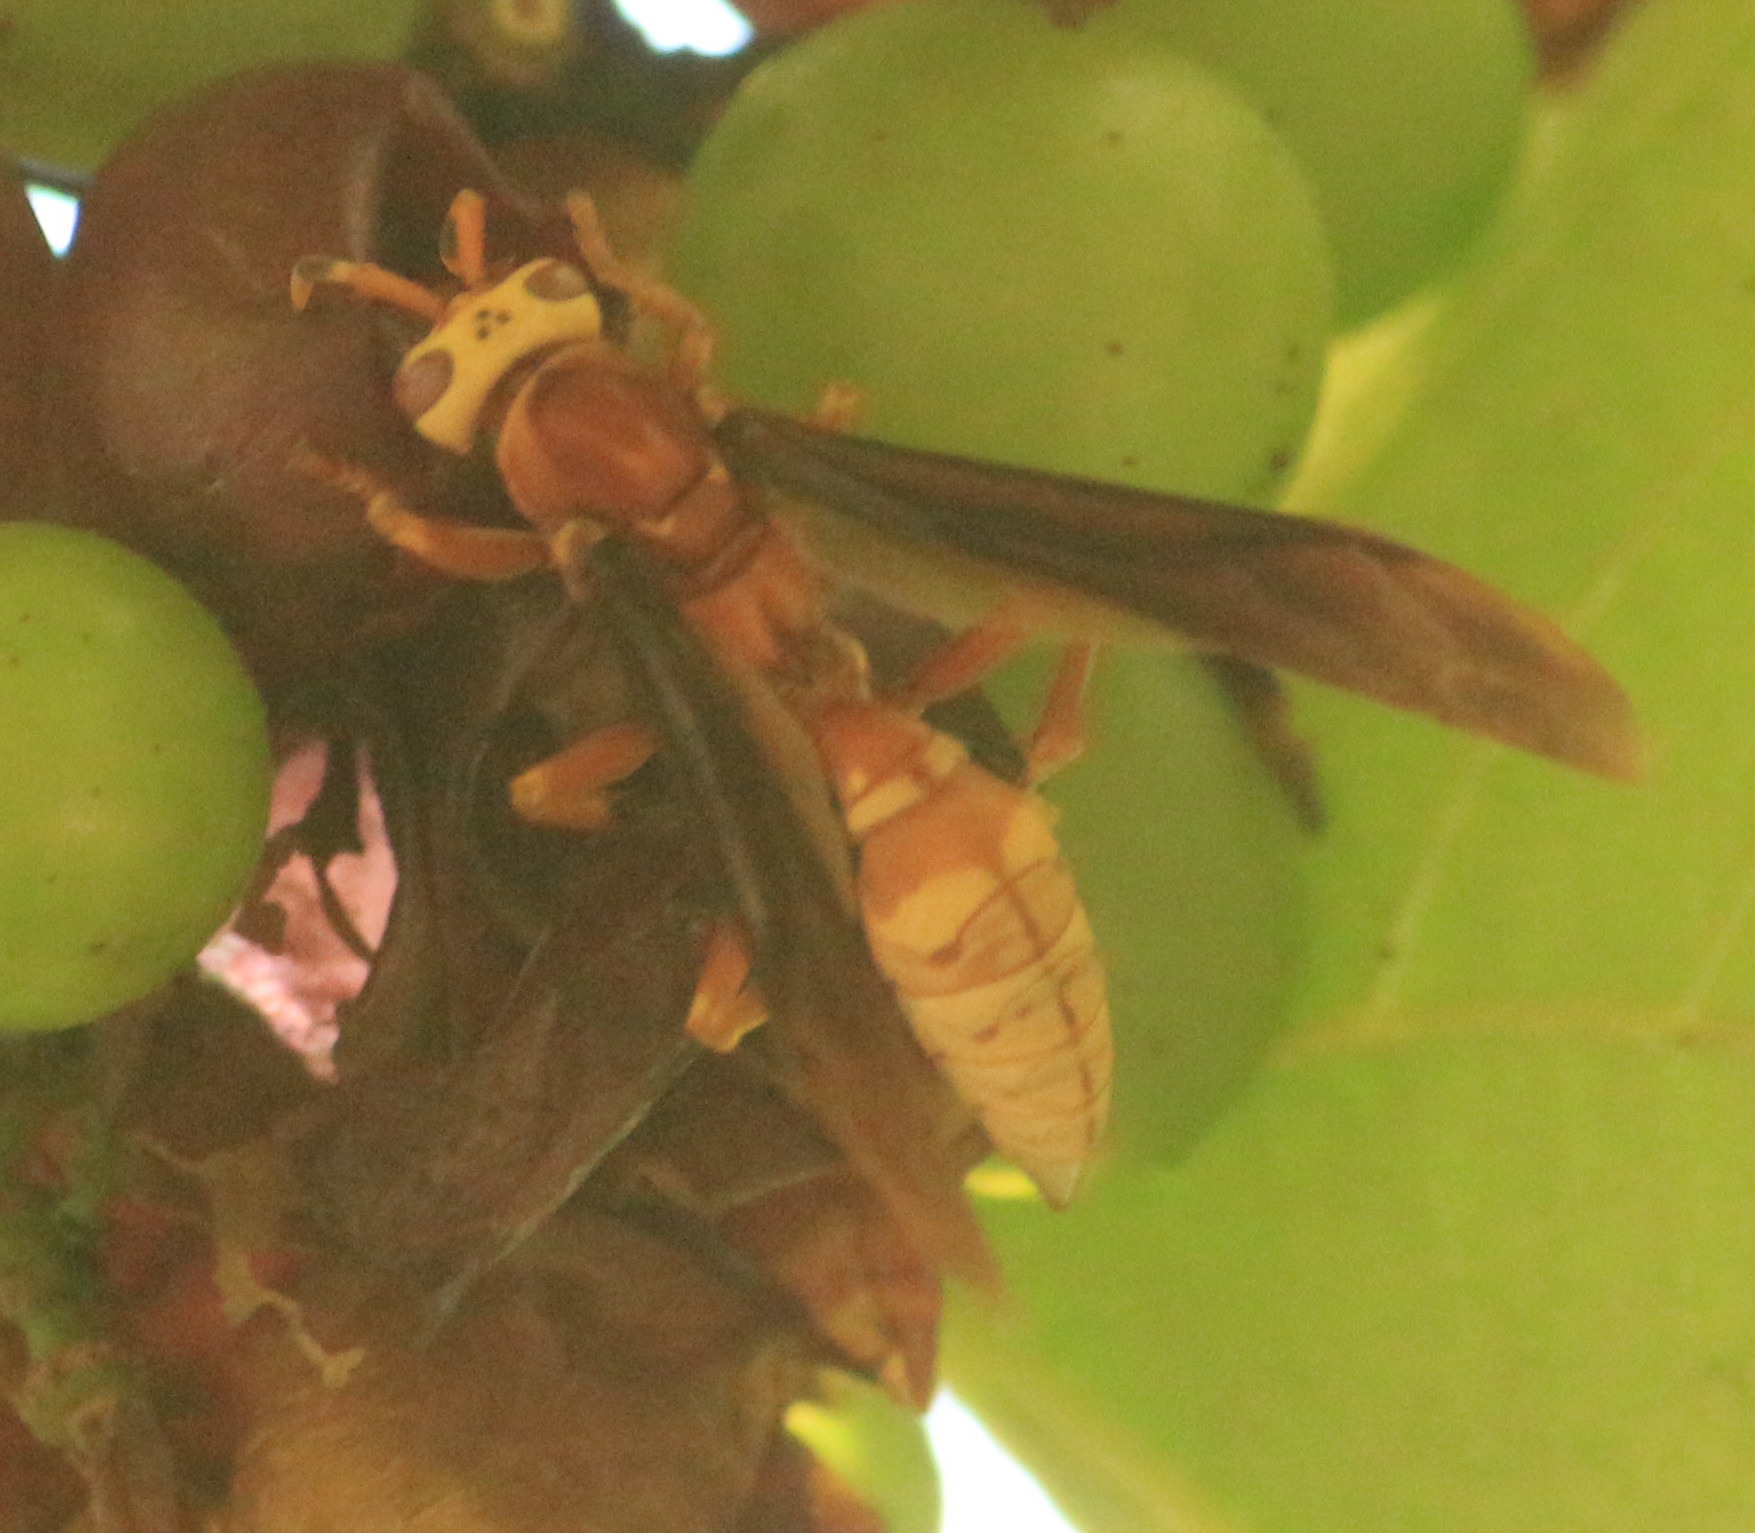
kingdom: Animalia
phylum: Arthropoda
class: Insecta
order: Hymenoptera
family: Eumenidae
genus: Polistes
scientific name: Polistes cavapyta
